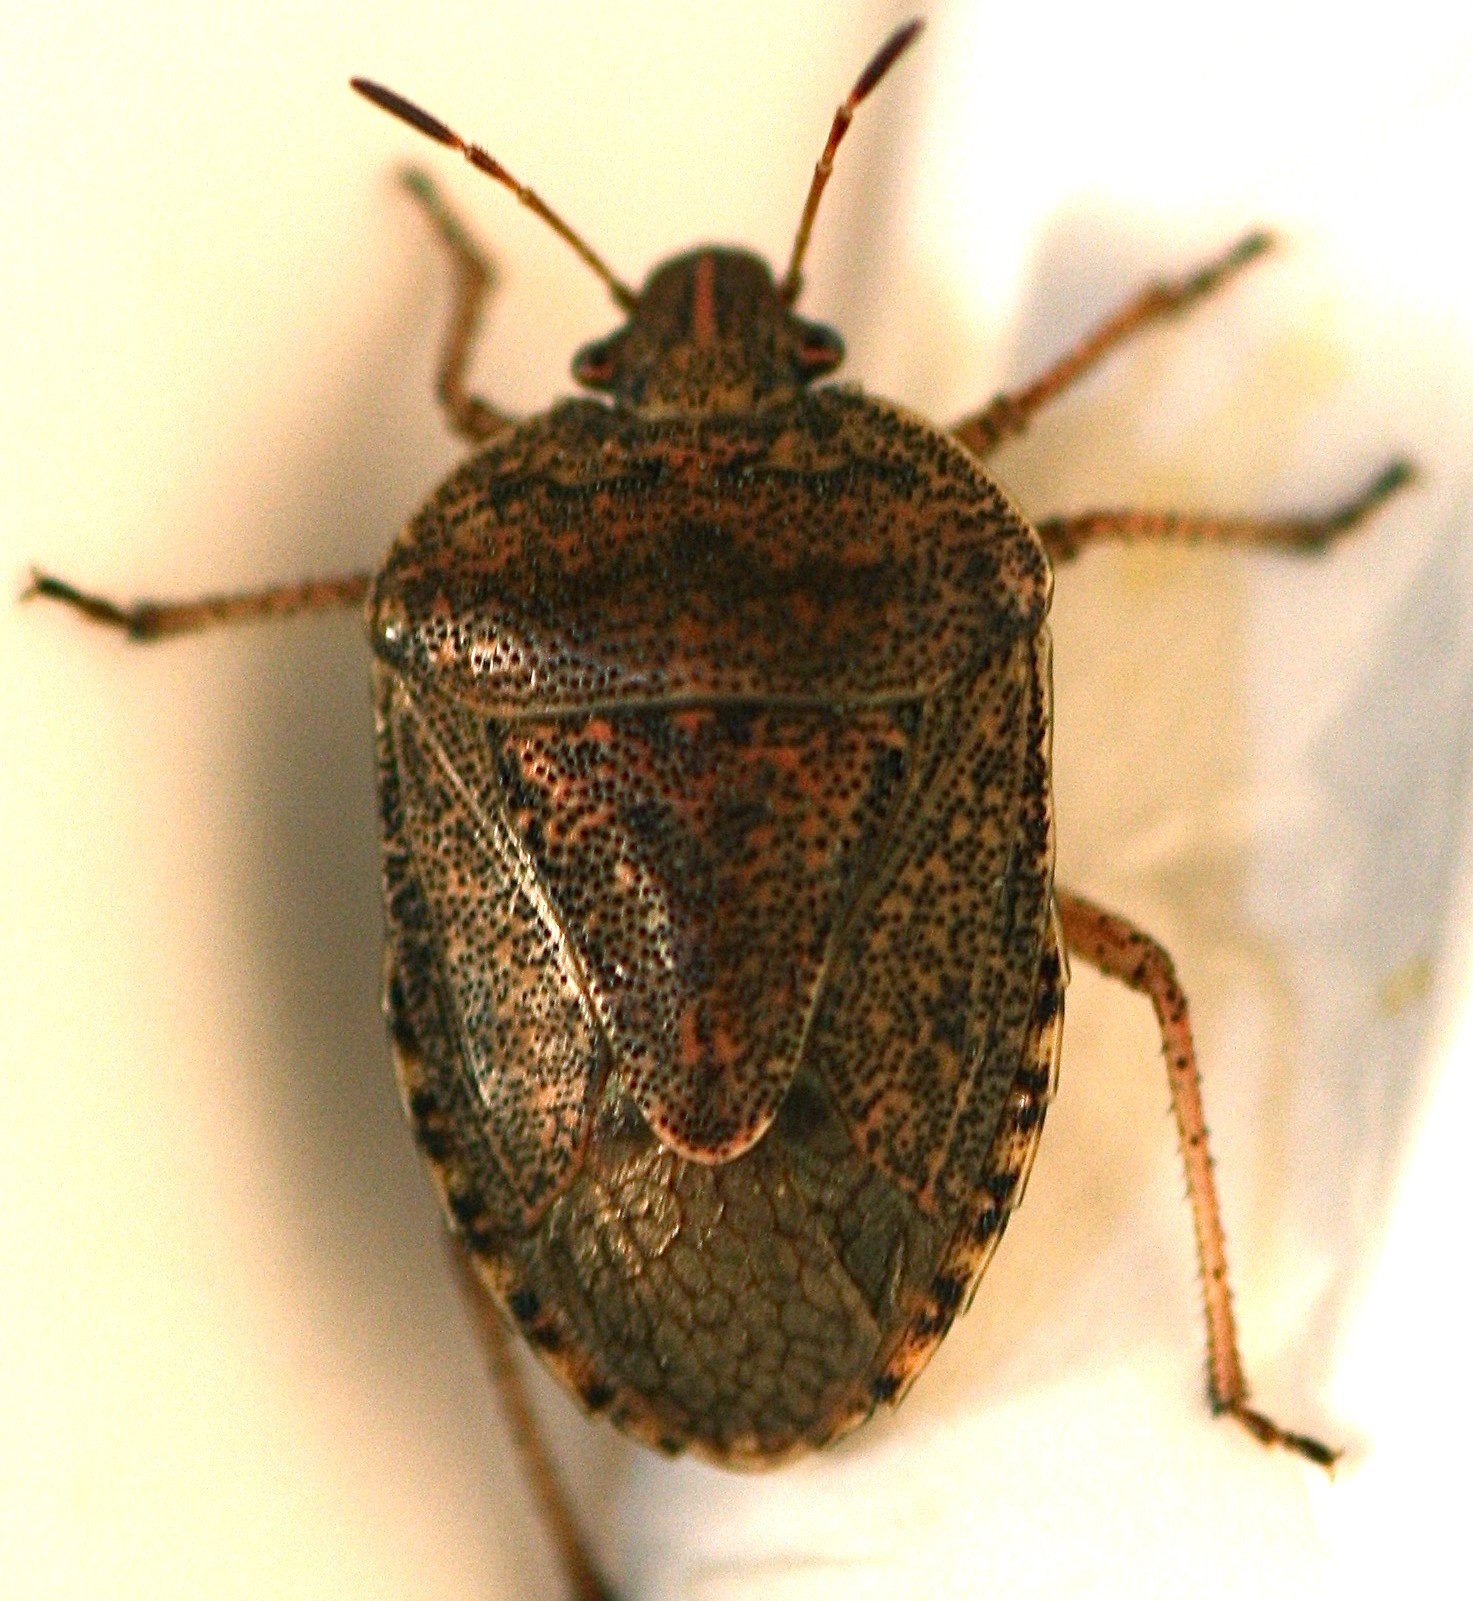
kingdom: Animalia
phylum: Arthropoda
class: Insecta
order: Hemiptera
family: Pentatomidae
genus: Hymenarcys
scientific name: Hymenarcys nervosa
